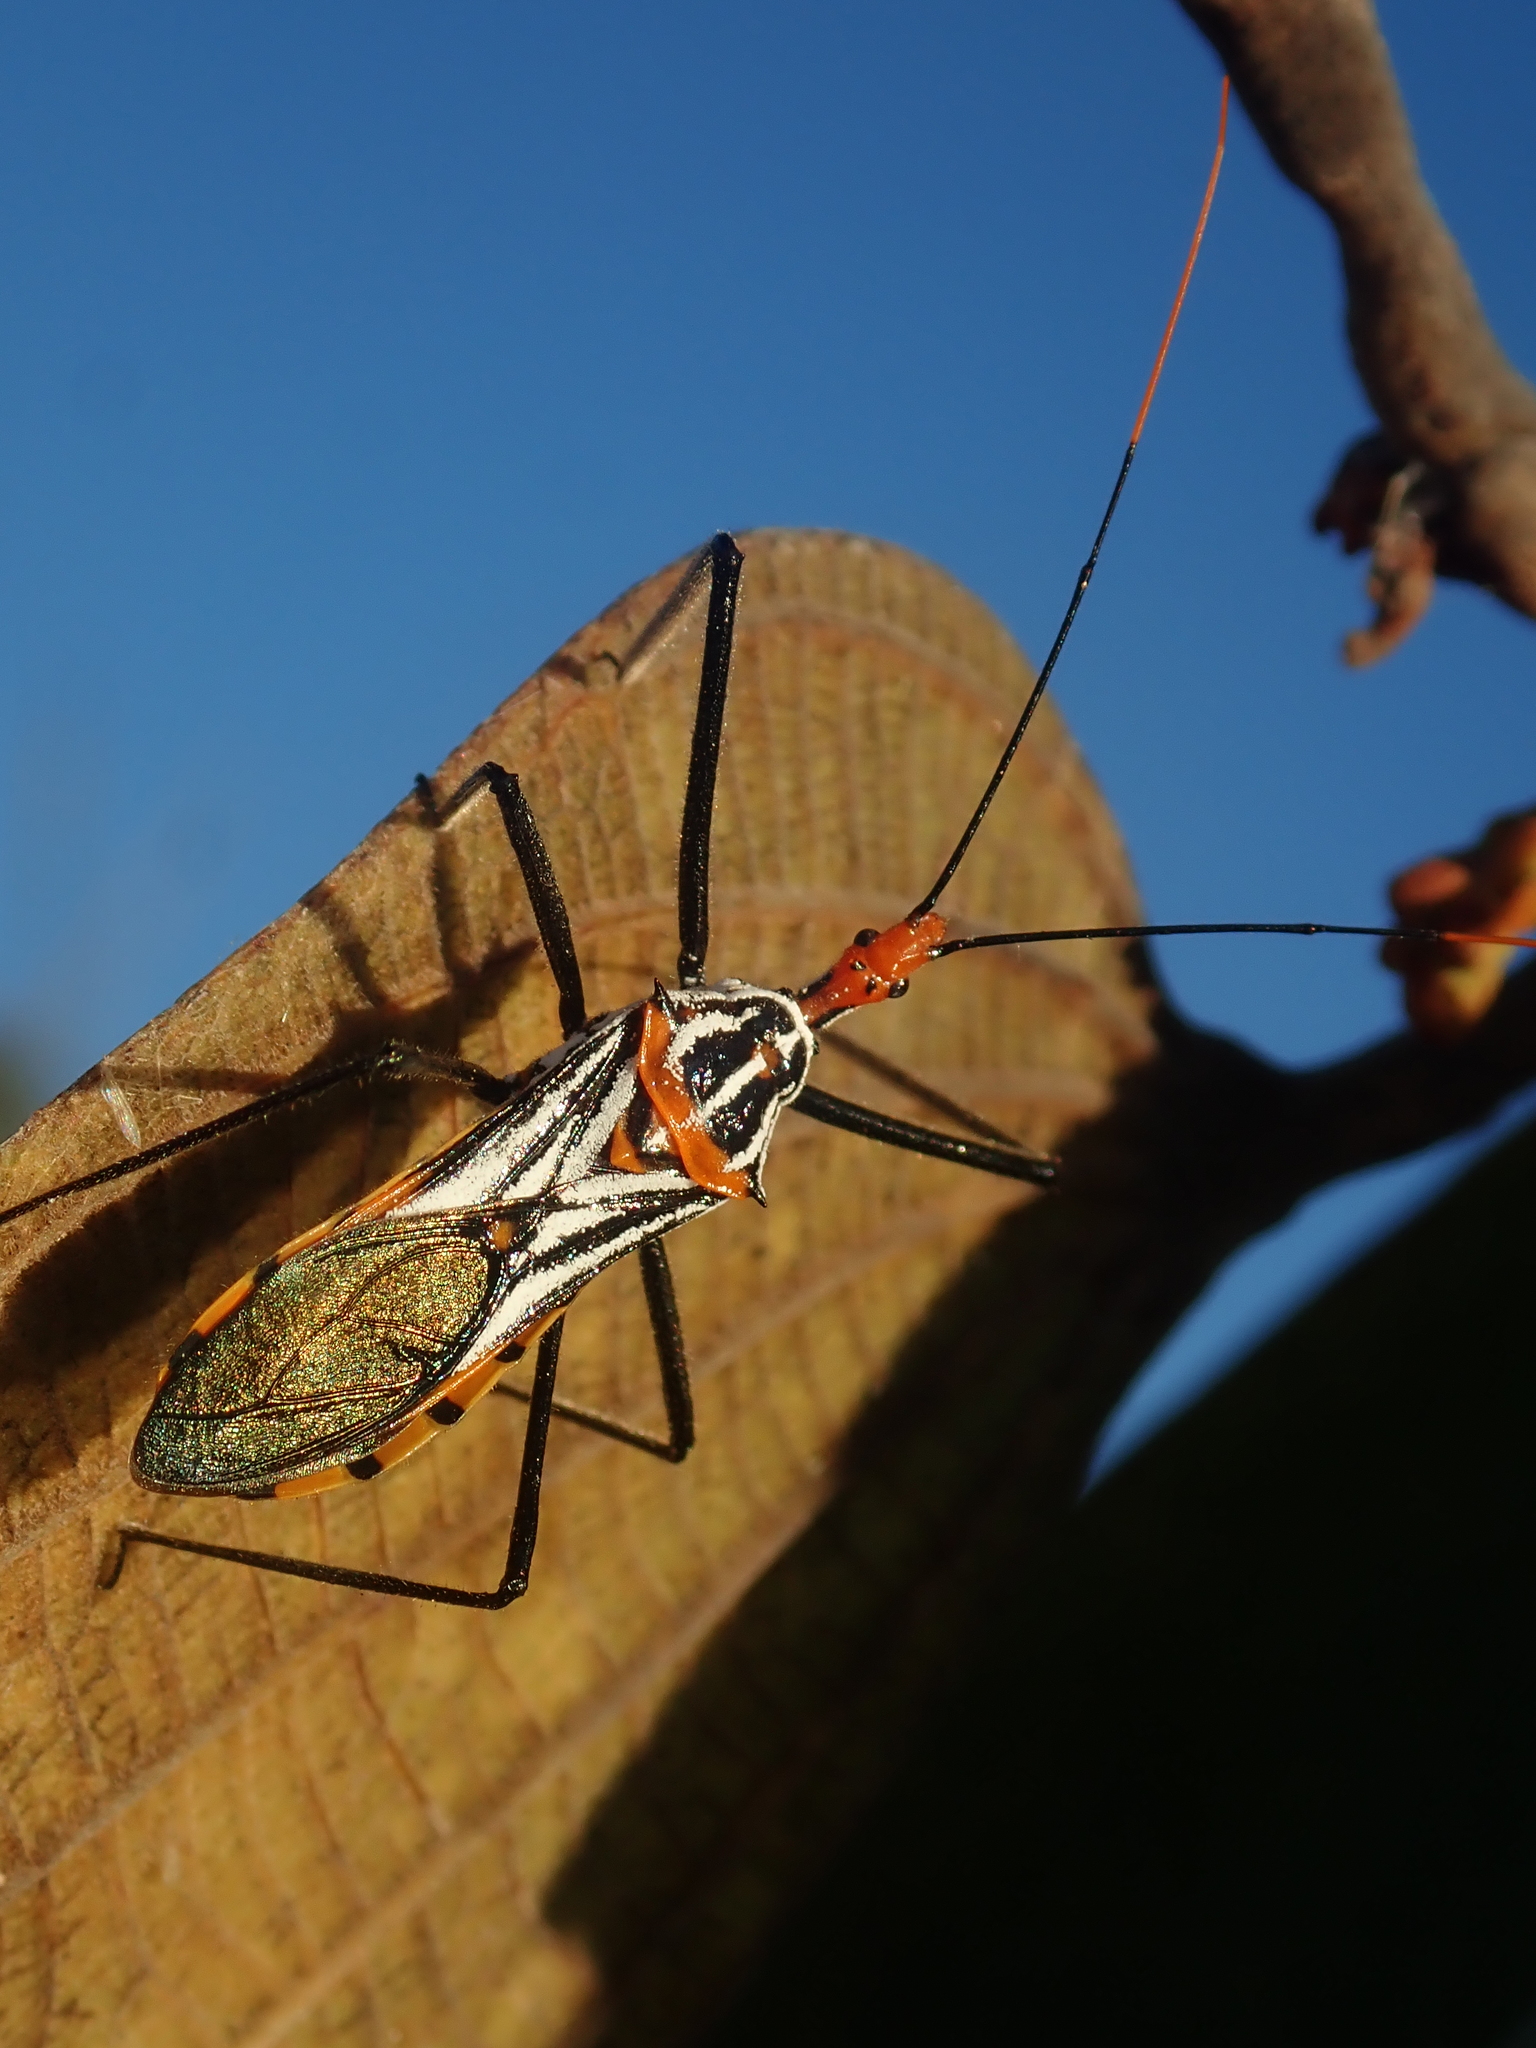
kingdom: Animalia
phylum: Arthropoda
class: Insecta
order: Hemiptera
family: Reduviidae
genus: Zelus
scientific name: Zelus leucogrammus
